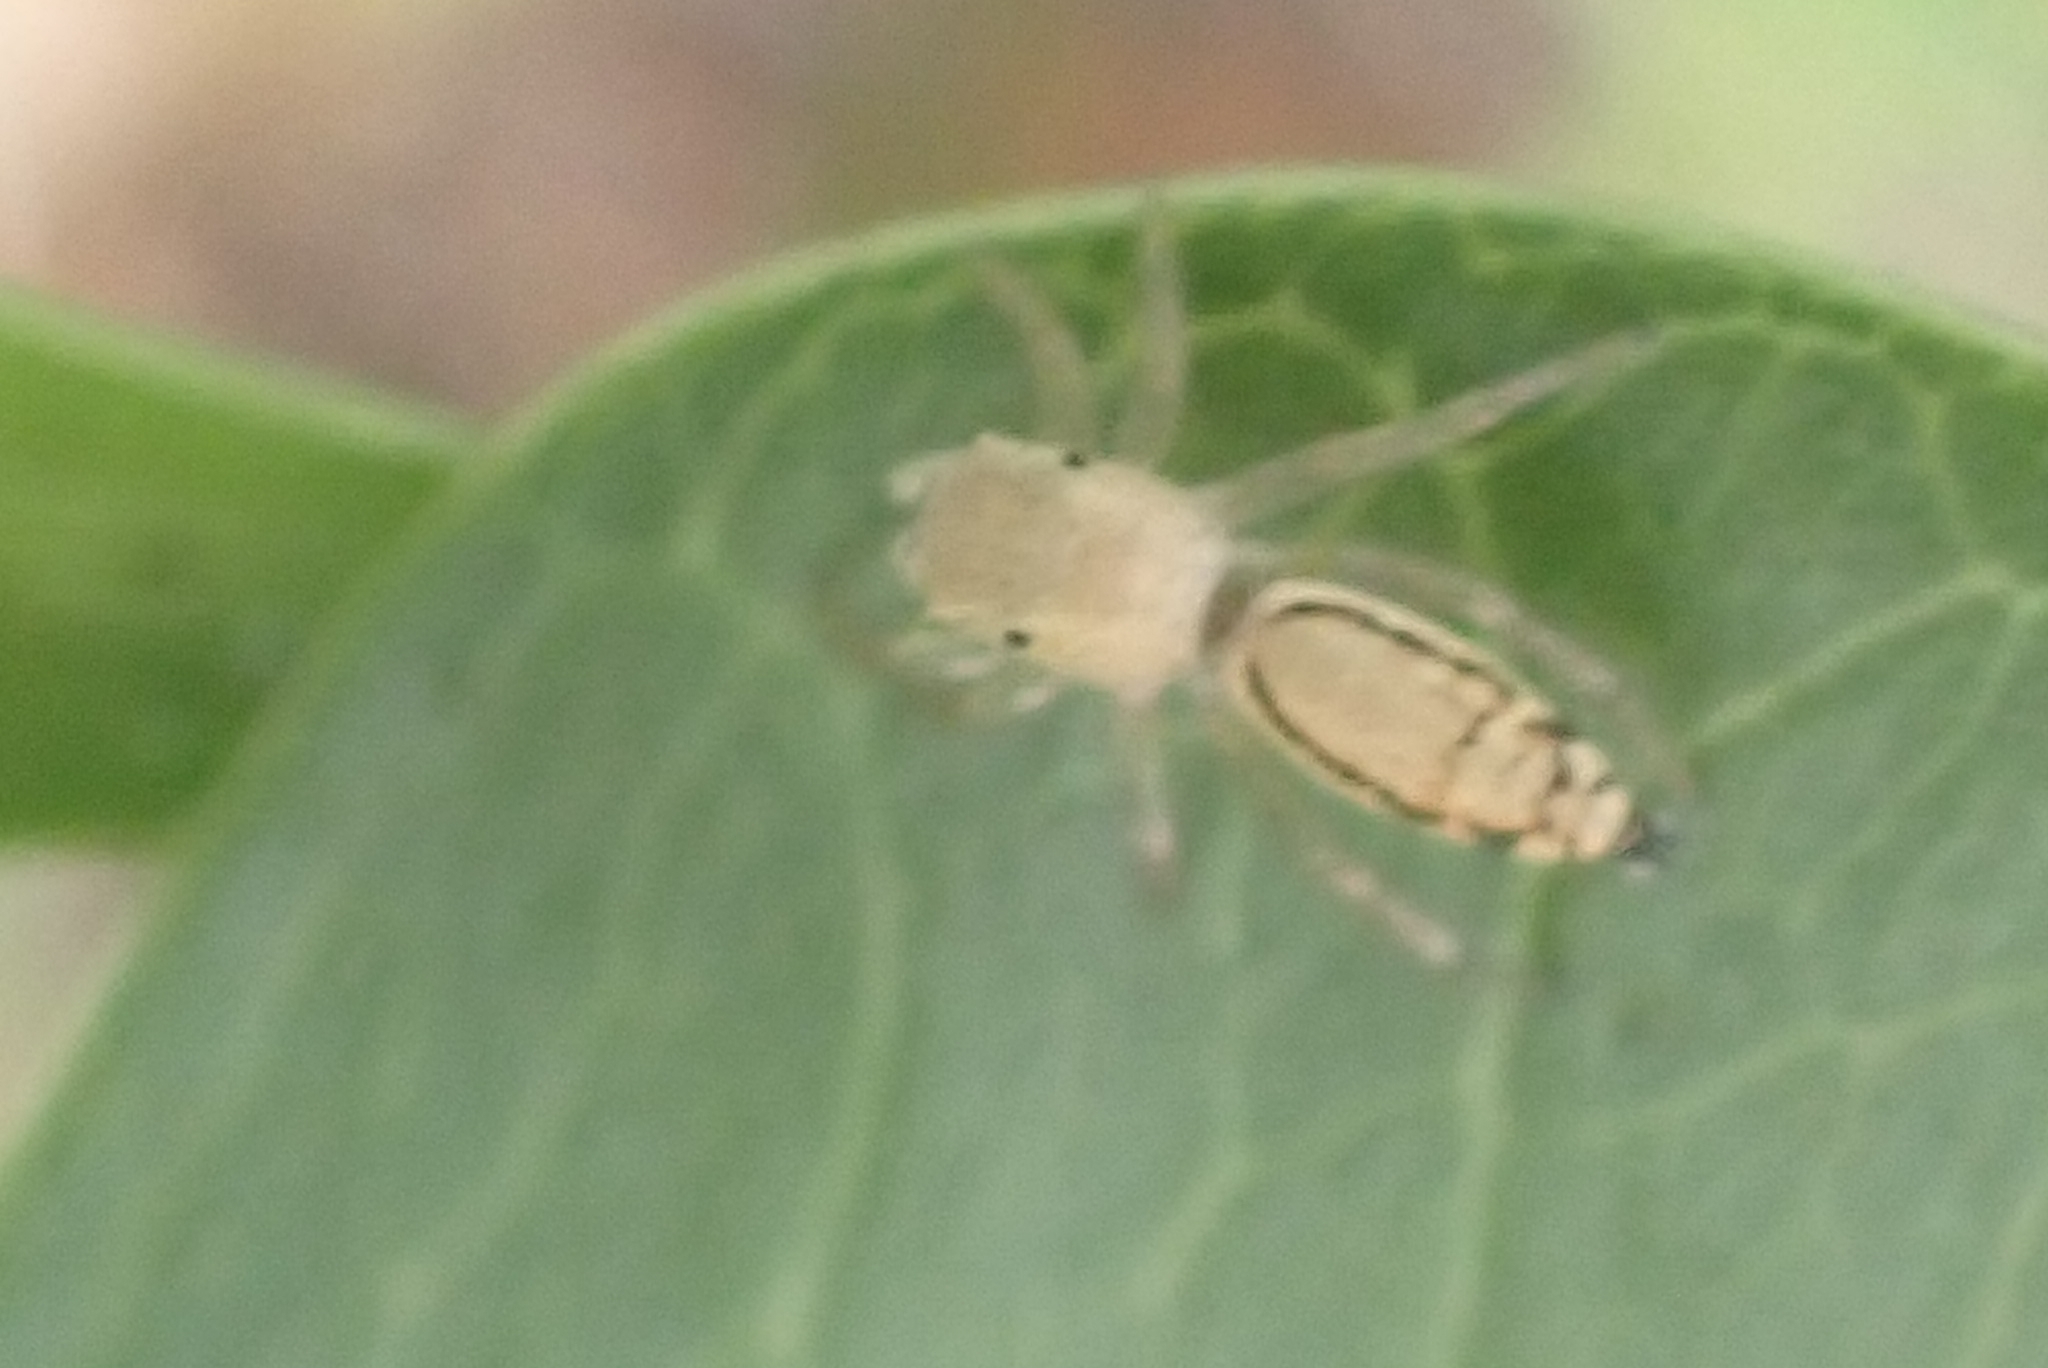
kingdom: Animalia
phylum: Arthropoda
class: Arachnida
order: Araneae
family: Salticidae
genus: Cosmophasis
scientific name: Cosmophasis lami
